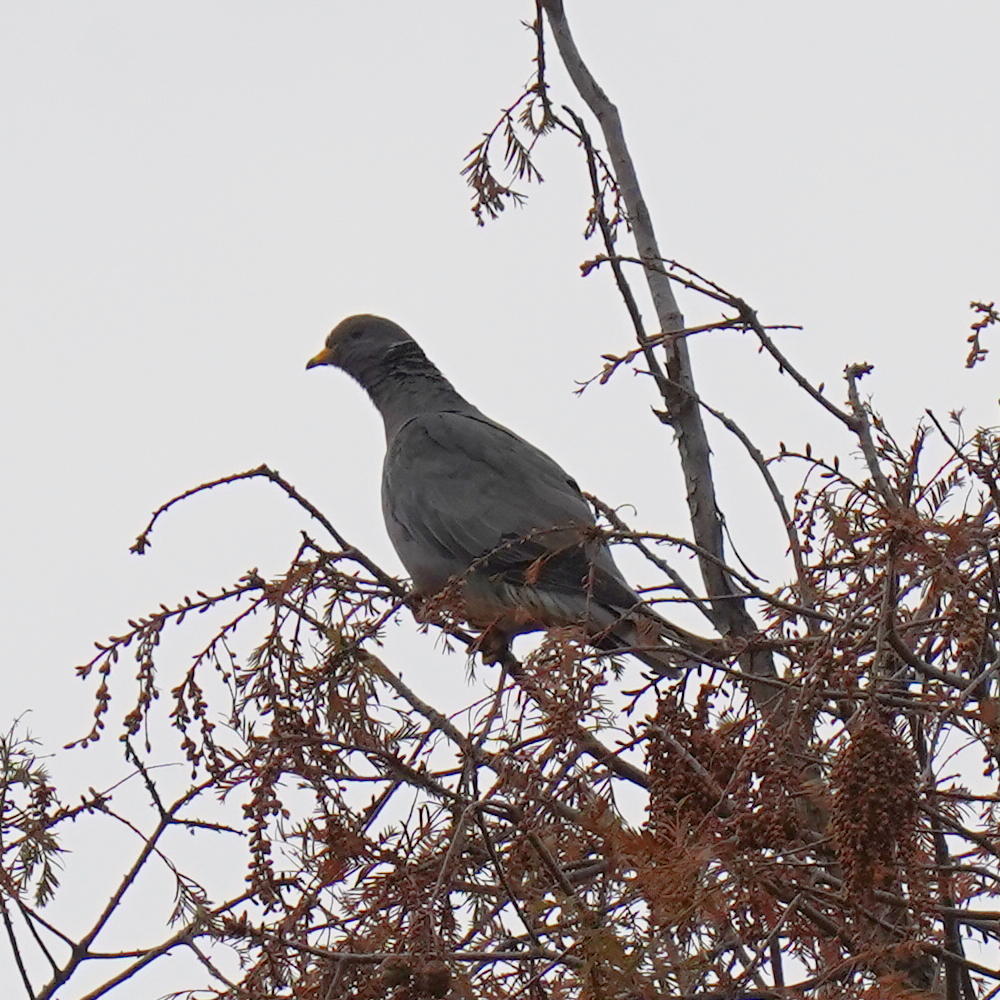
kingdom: Animalia
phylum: Chordata
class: Aves
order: Columbiformes
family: Columbidae
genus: Patagioenas
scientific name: Patagioenas fasciata
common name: Band-tailed pigeon
